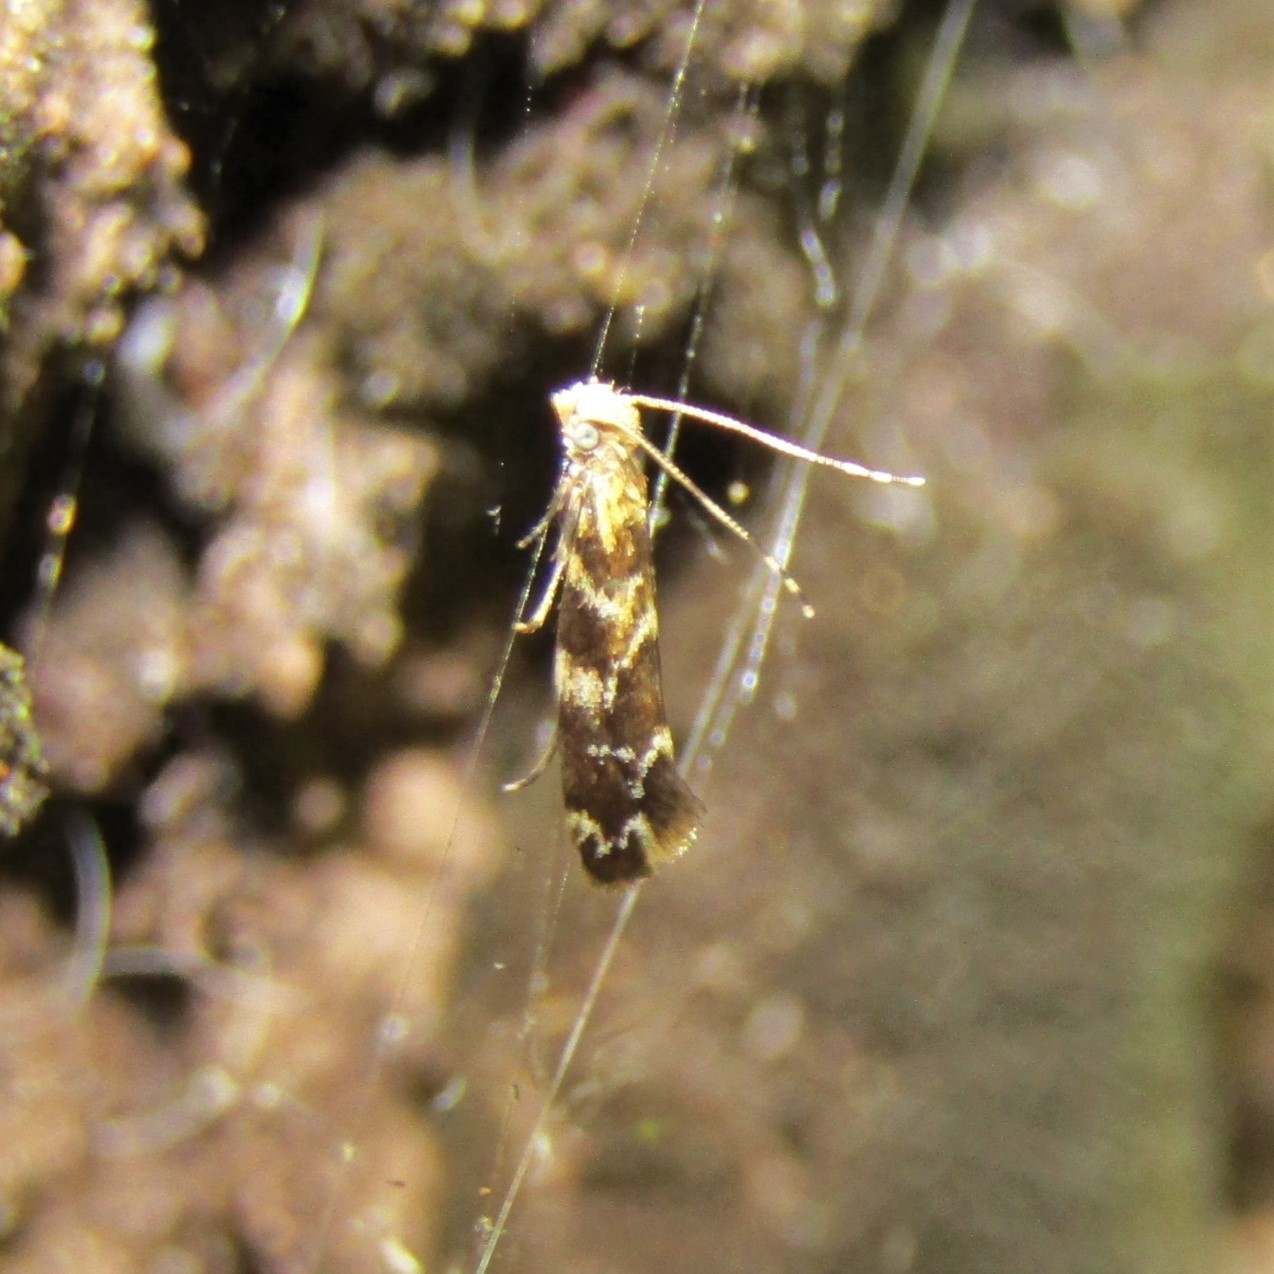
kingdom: Animalia
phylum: Arthropoda
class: Insecta
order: Lepidoptera
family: Dryadaulidae
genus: Dryadaula
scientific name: Dryadaula pactolia
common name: Cellar clothes
